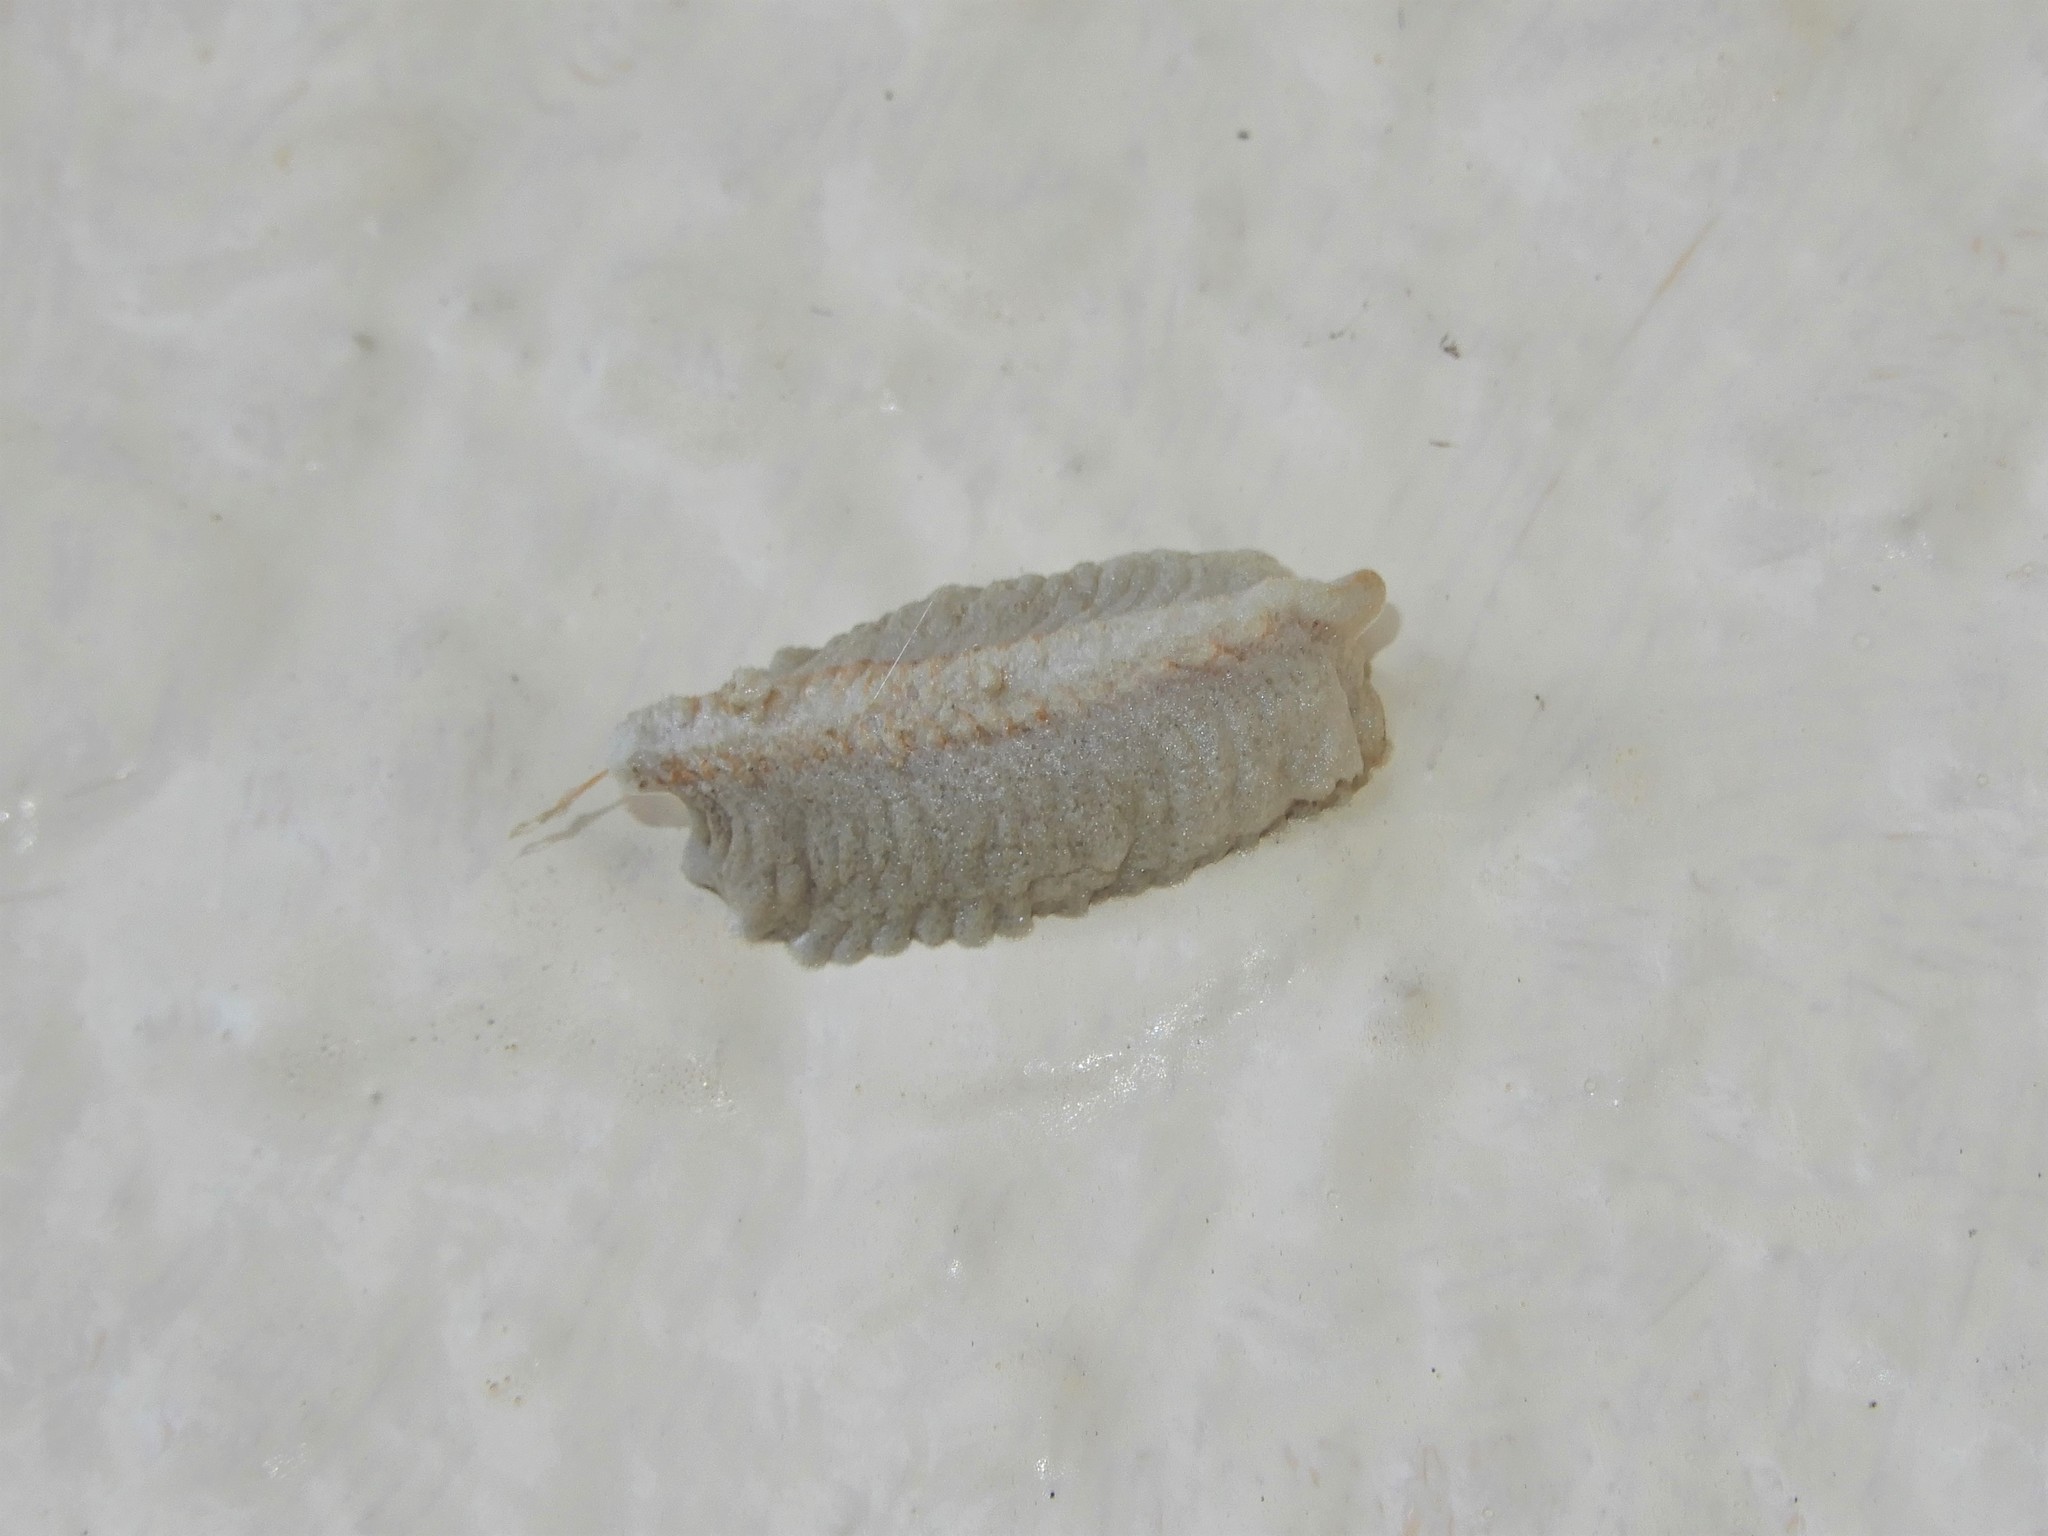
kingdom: Animalia
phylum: Arthropoda
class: Insecta
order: Mantodea
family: Miomantidae
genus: Miomantis
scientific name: Miomantis caffra
